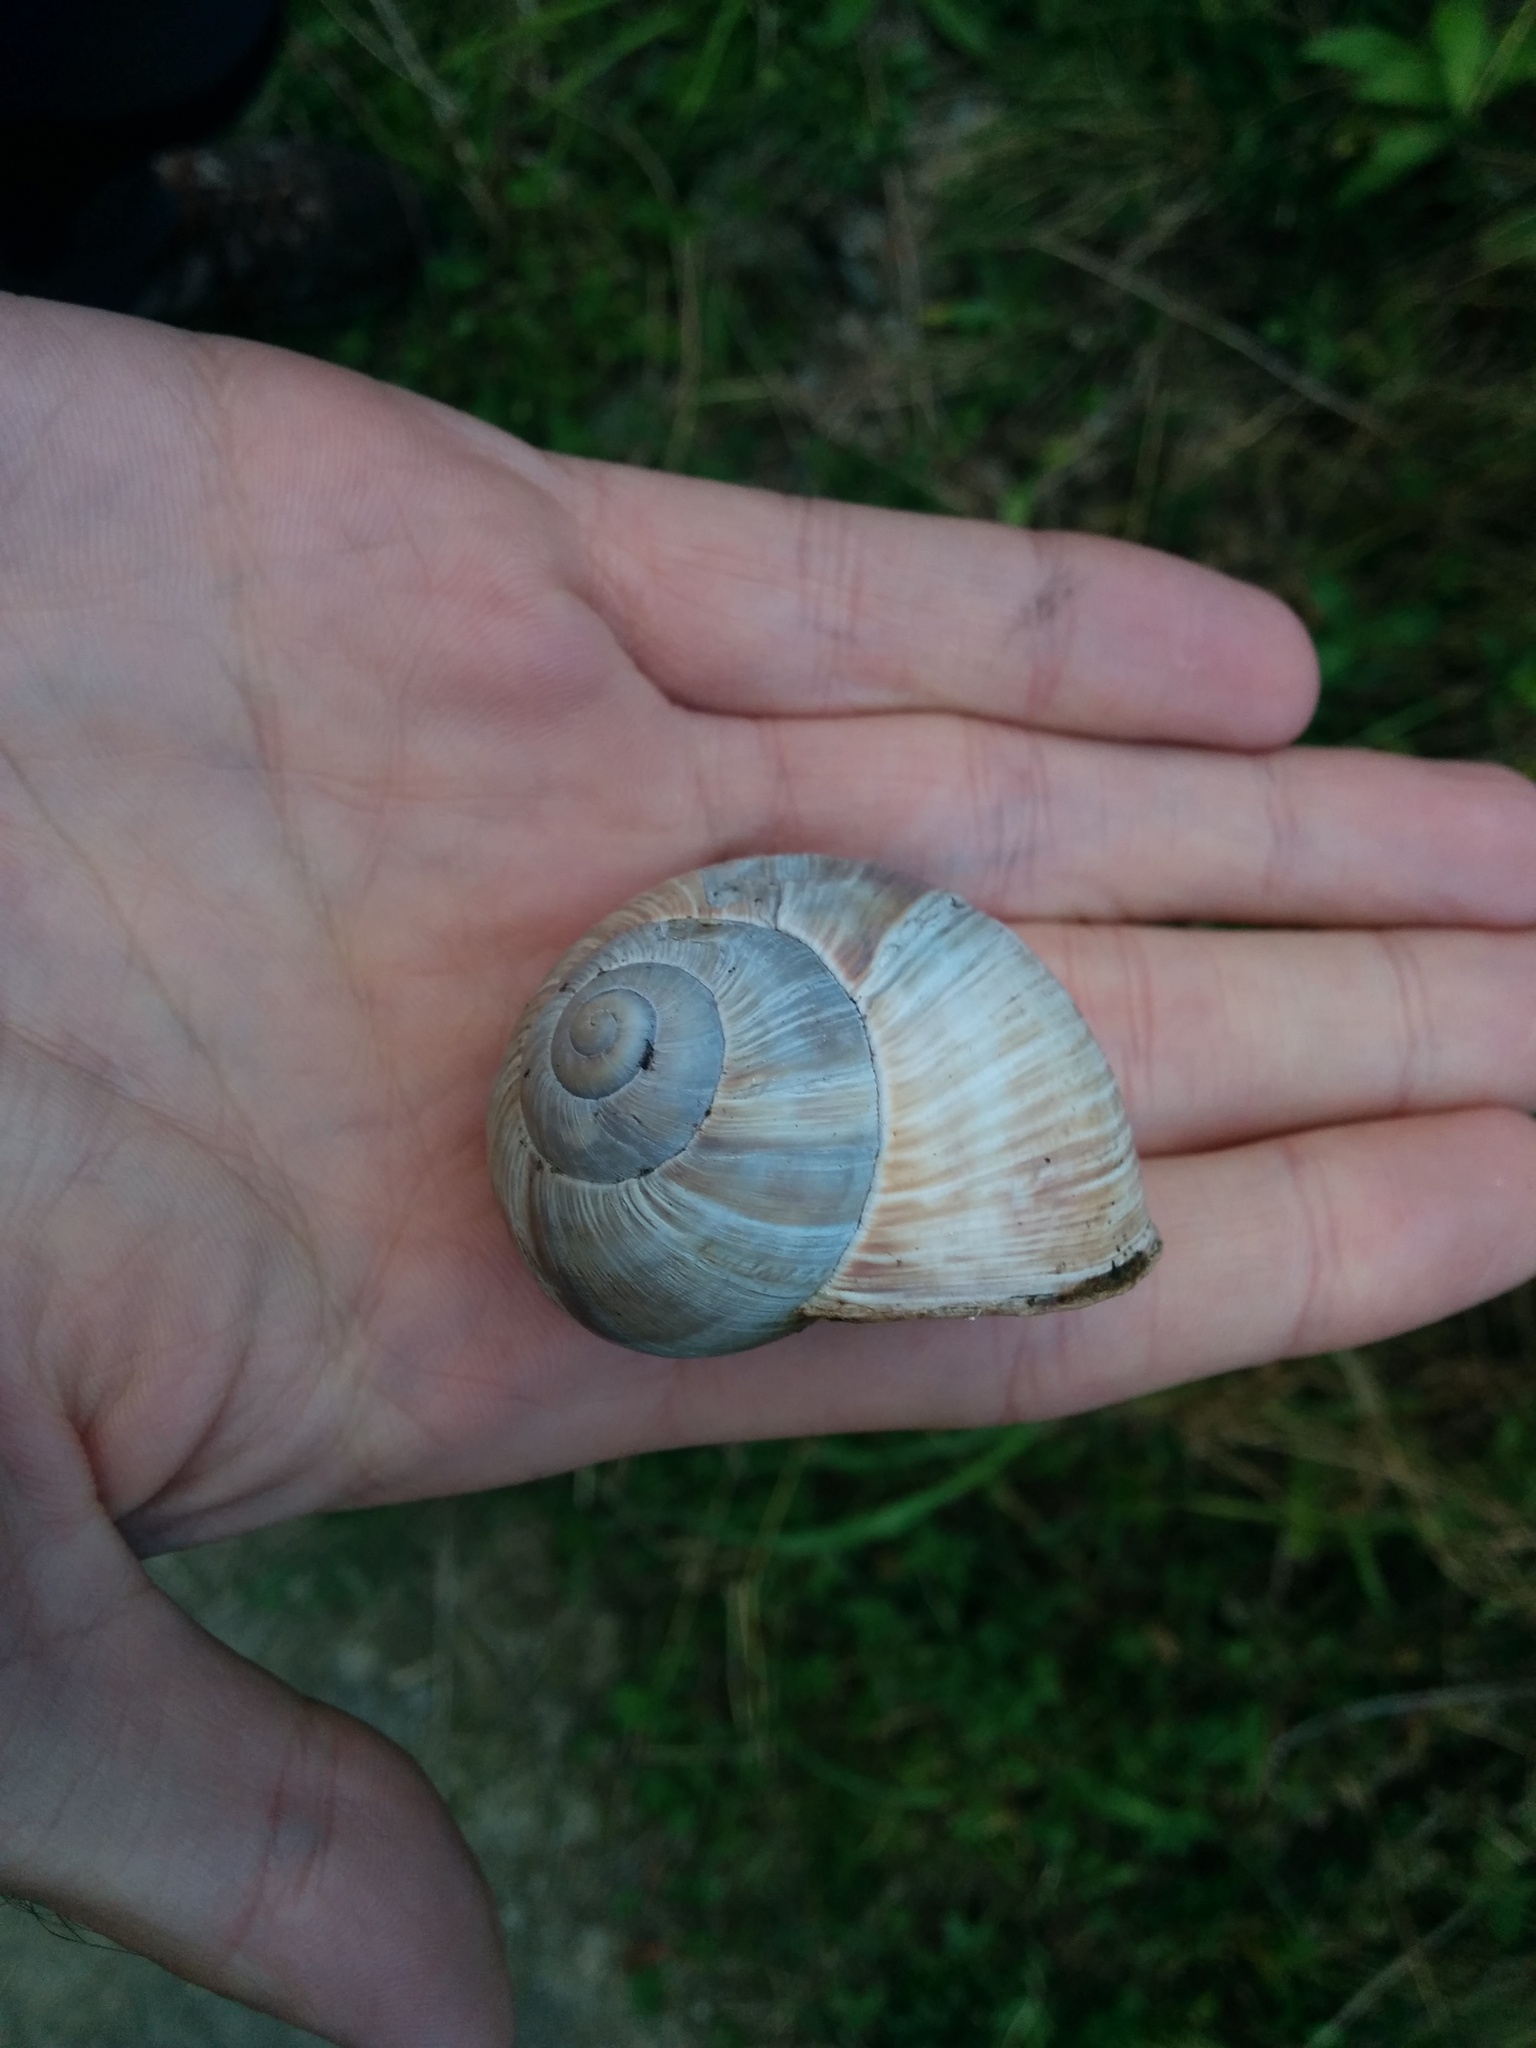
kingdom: Animalia
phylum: Mollusca
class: Gastropoda
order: Stylommatophora
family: Helicidae
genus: Helix
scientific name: Helix pomatia
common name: Roman snail
